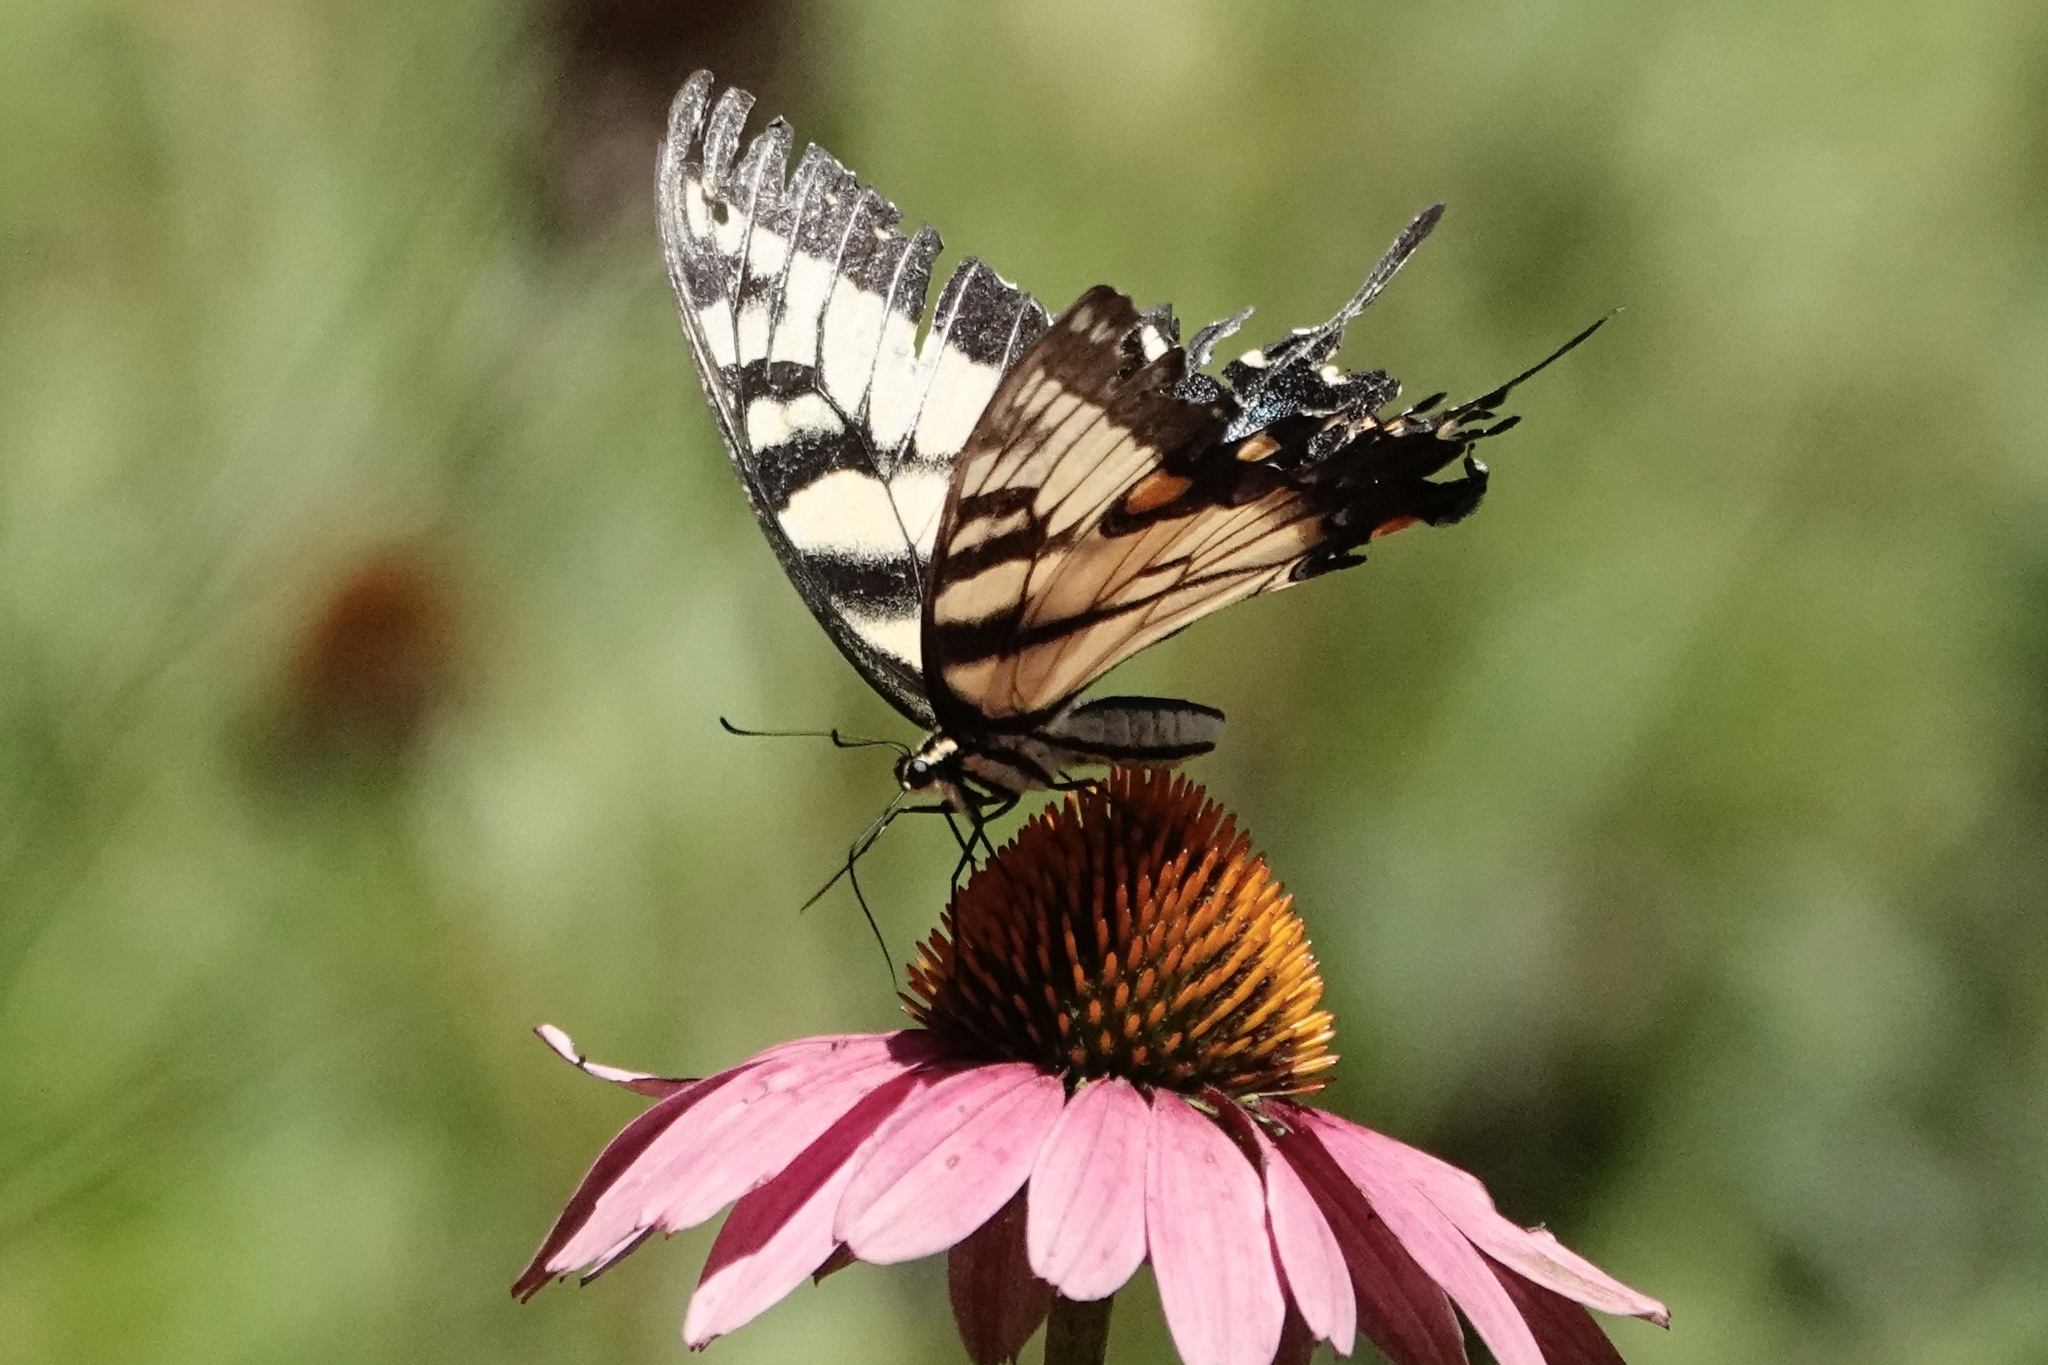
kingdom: Animalia
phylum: Arthropoda
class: Insecta
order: Lepidoptera
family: Papilionidae
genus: Papilio
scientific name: Papilio glaucus
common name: Tiger swallowtail
